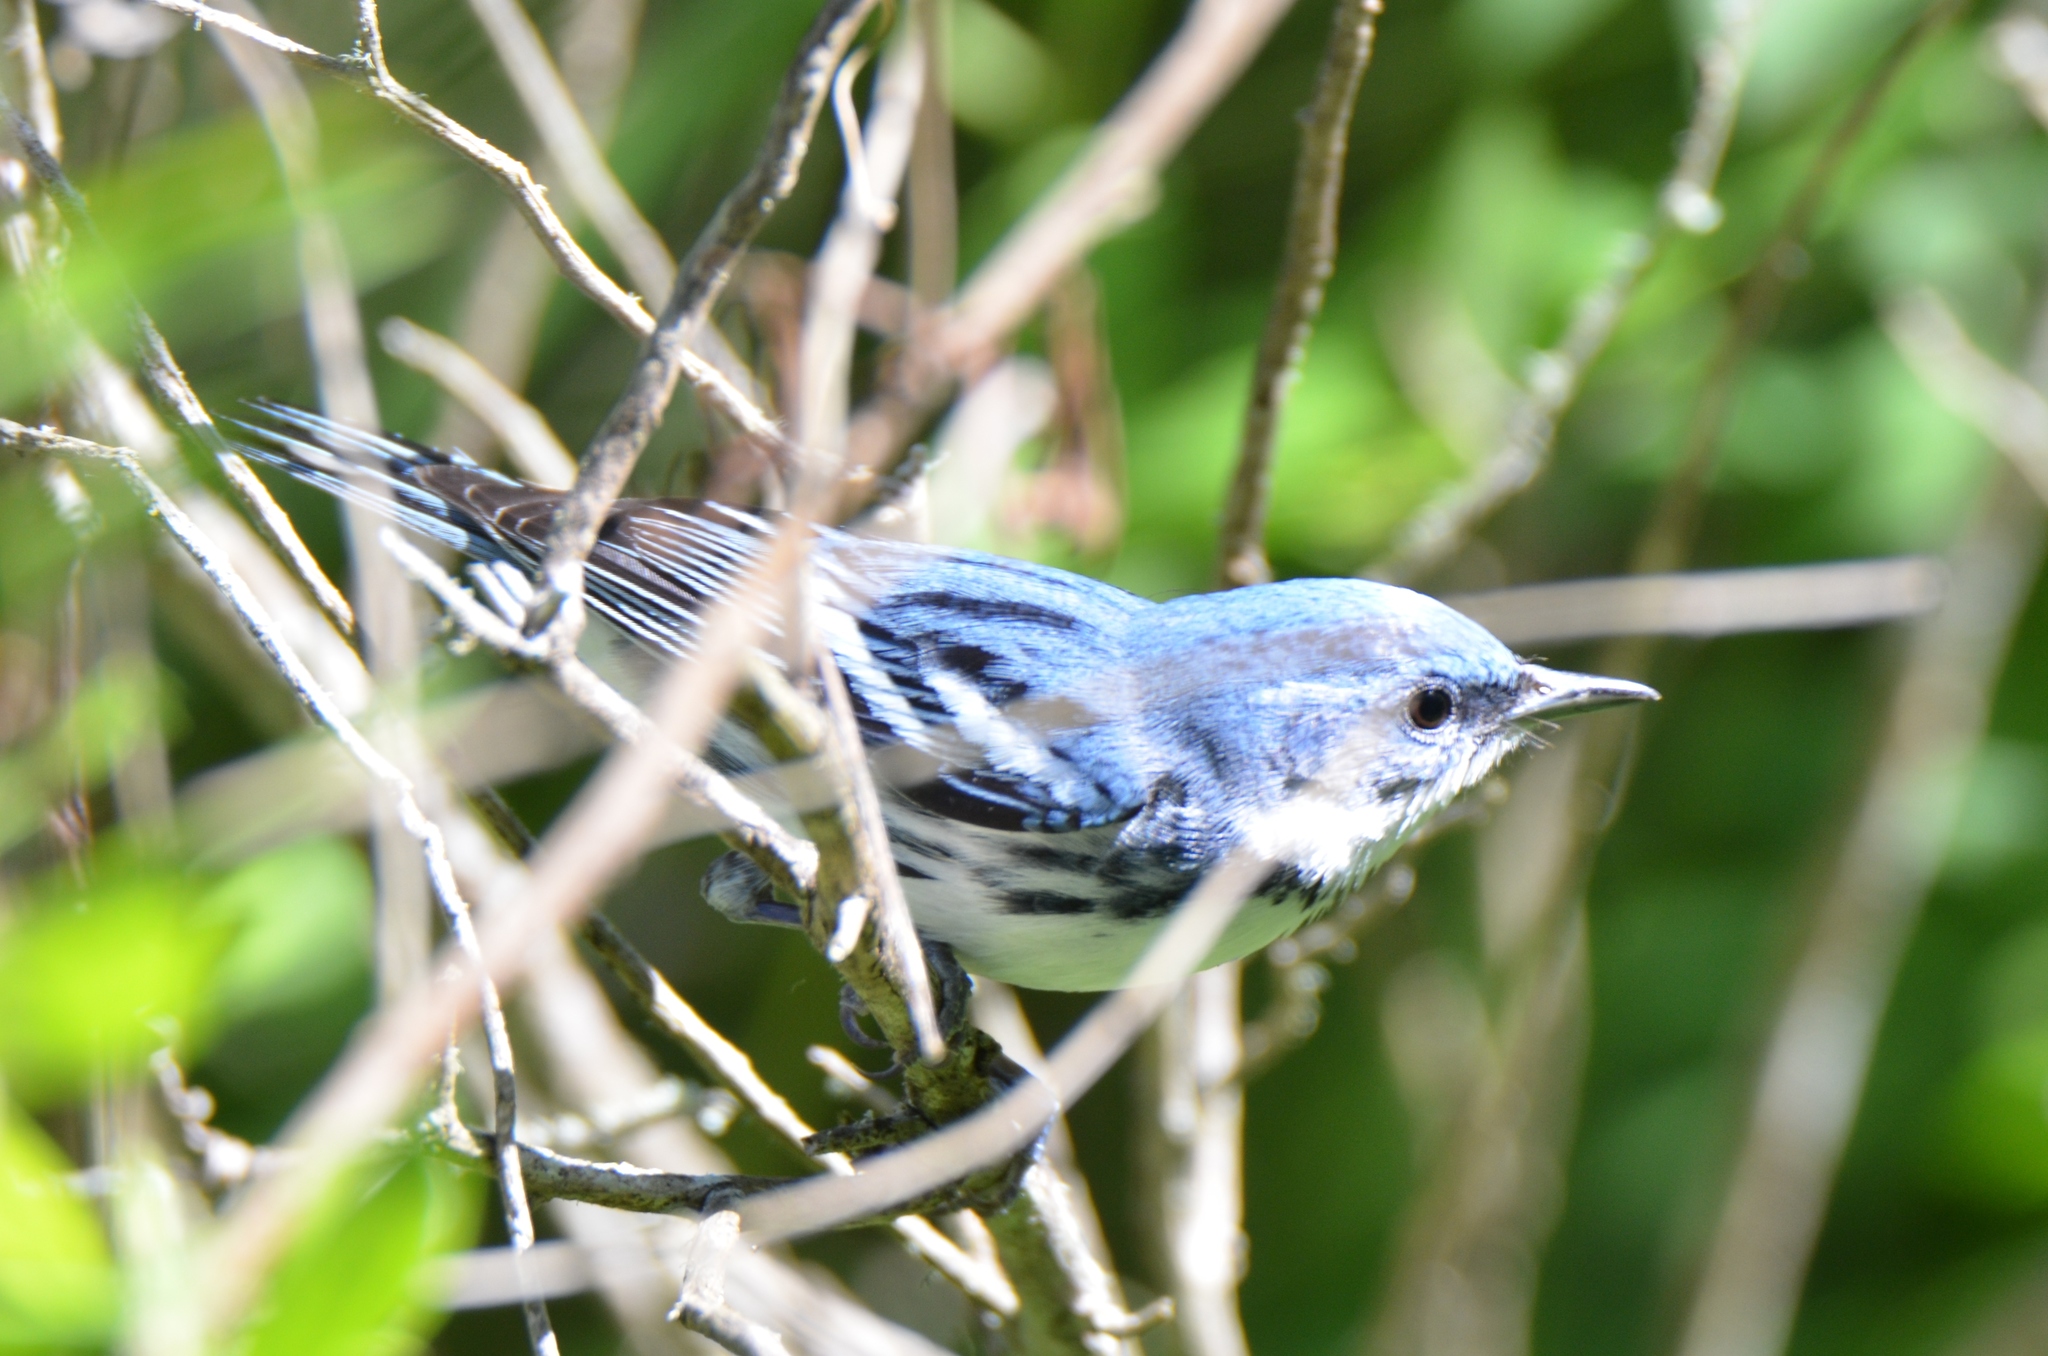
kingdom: Animalia
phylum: Chordata
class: Aves
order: Passeriformes
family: Parulidae
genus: Setophaga
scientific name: Setophaga cerulea
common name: Cerulean warbler
